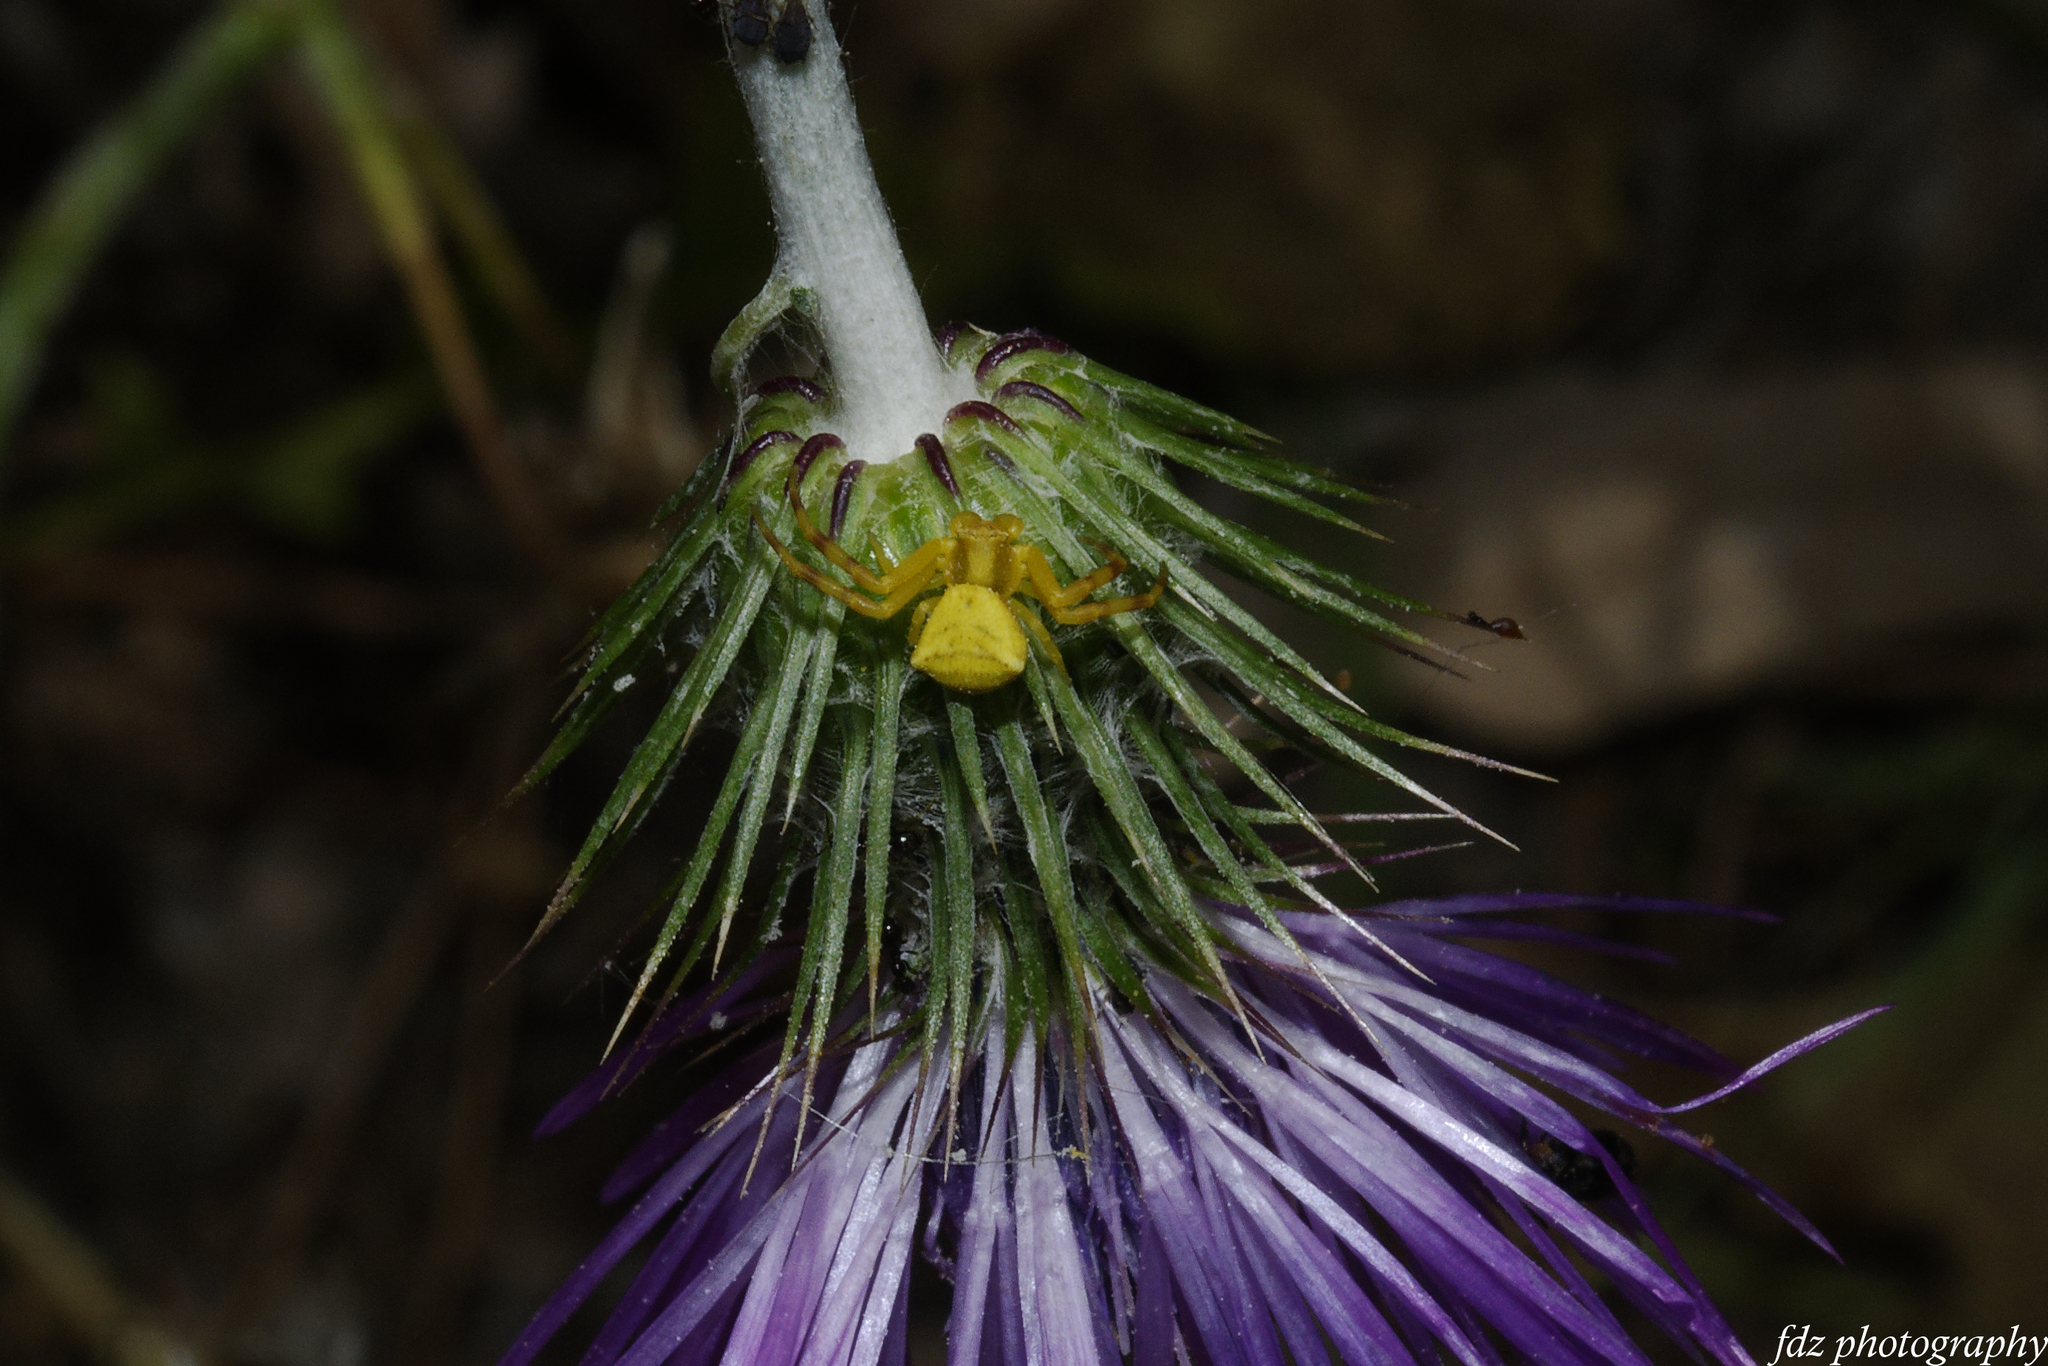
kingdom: Animalia
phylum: Arthropoda
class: Arachnida
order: Araneae
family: Thomisidae
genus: Thomisus
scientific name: Thomisus onustus
